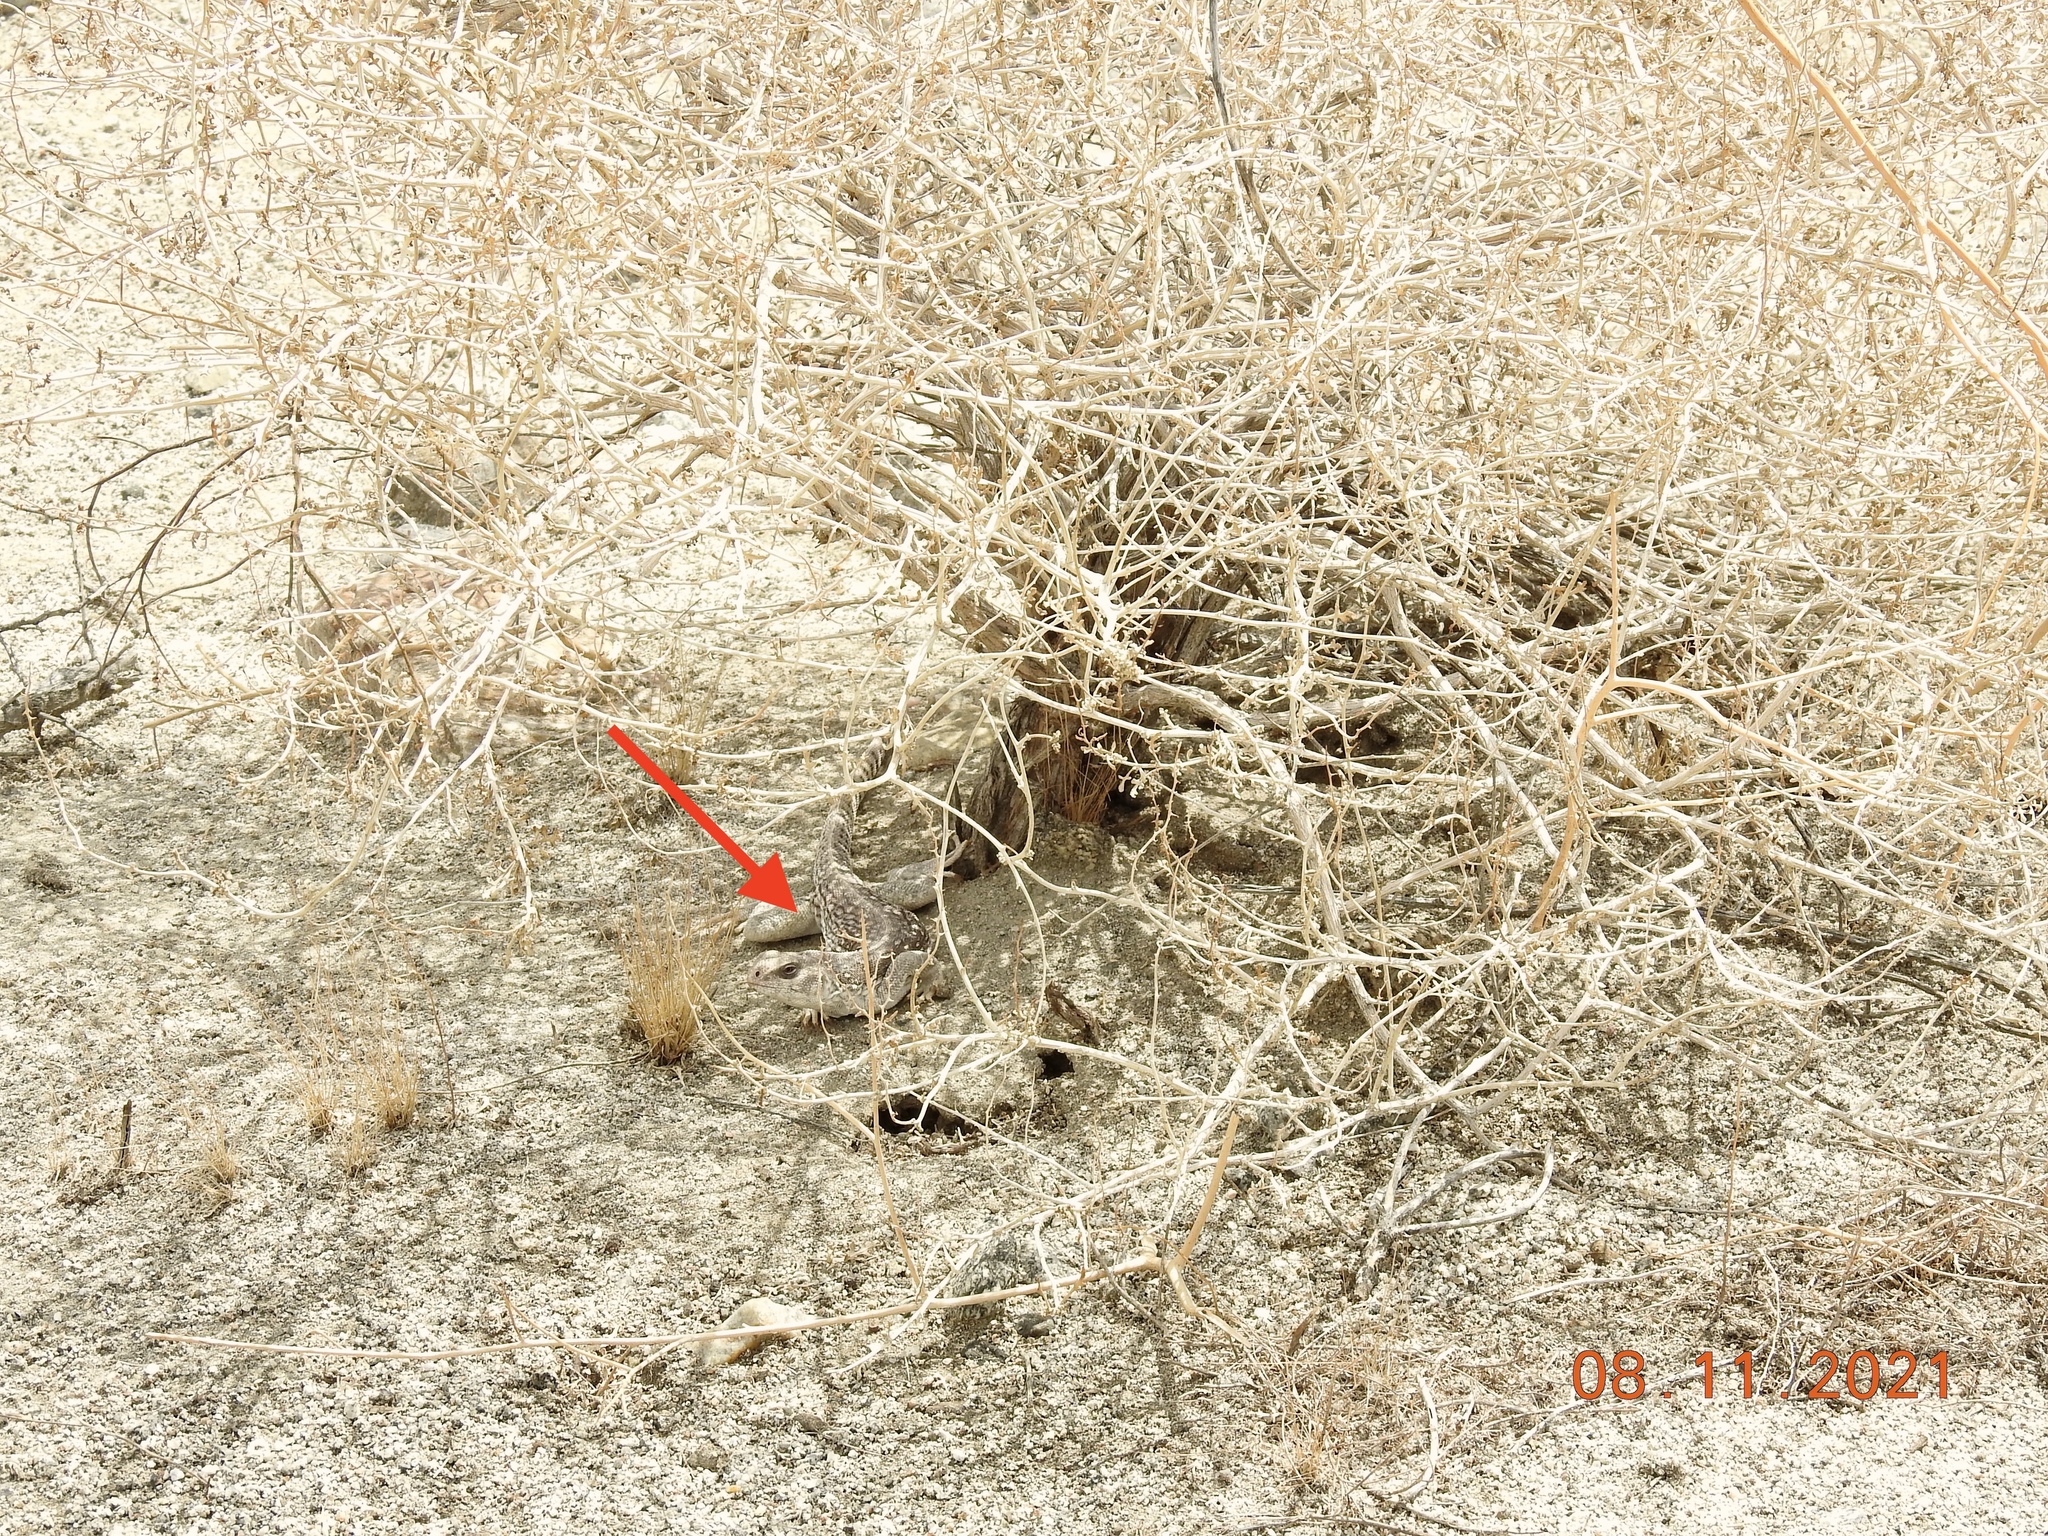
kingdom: Animalia
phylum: Chordata
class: Squamata
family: Iguanidae
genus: Dipsosaurus
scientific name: Dipsosaurus dorsalis
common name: Desert iguana
